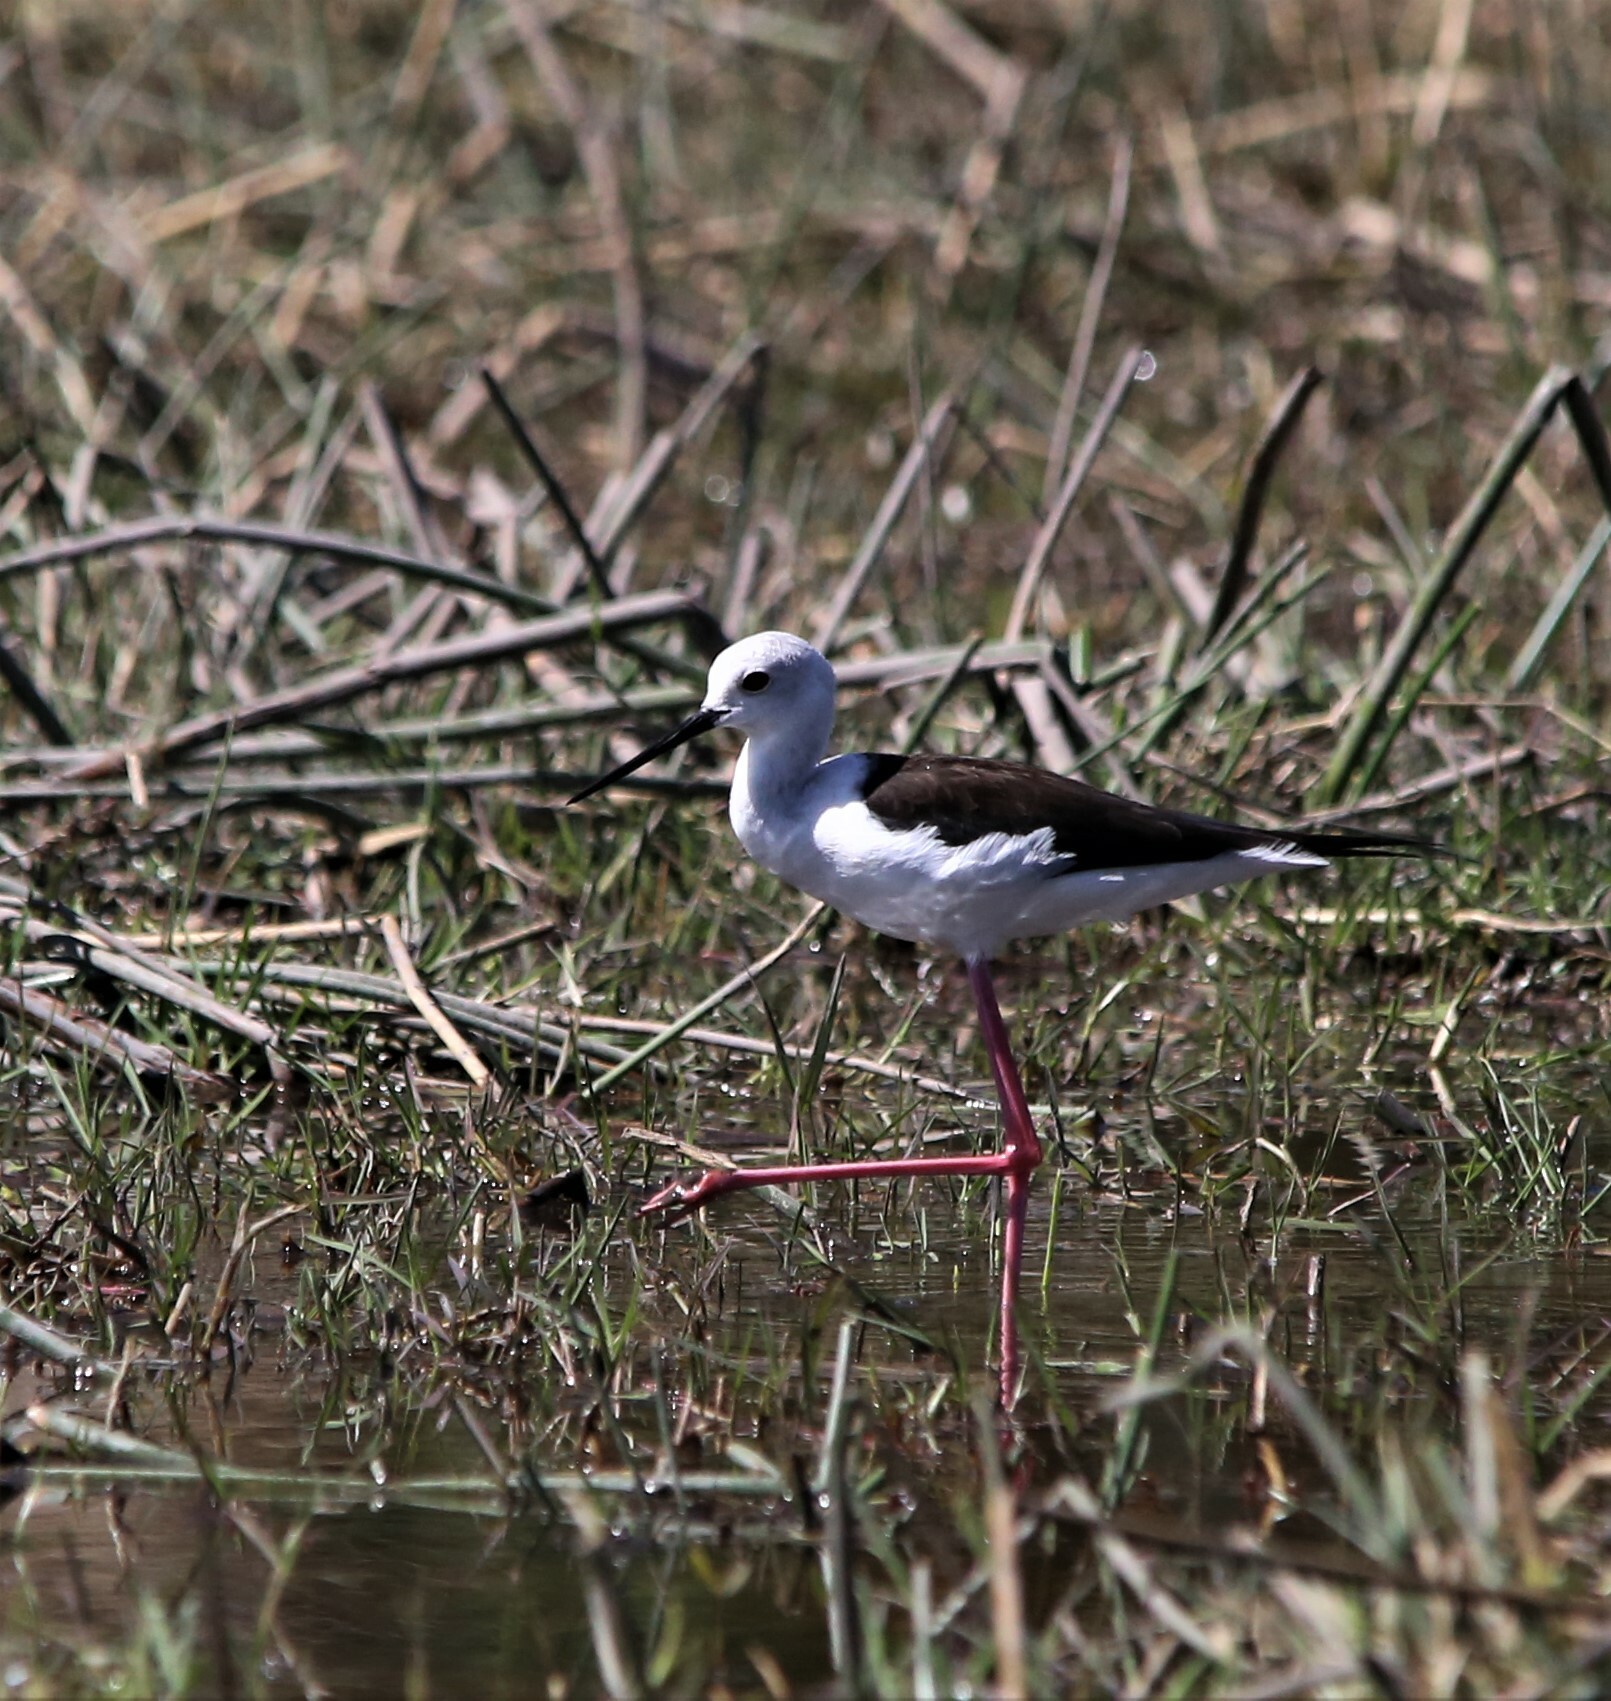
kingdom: Animalia
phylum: Chordata
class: Aves
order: Charadriiformes
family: Recurvirostridae
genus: Himantopus
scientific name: Himantopus himantopus
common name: Black-winged stilt
